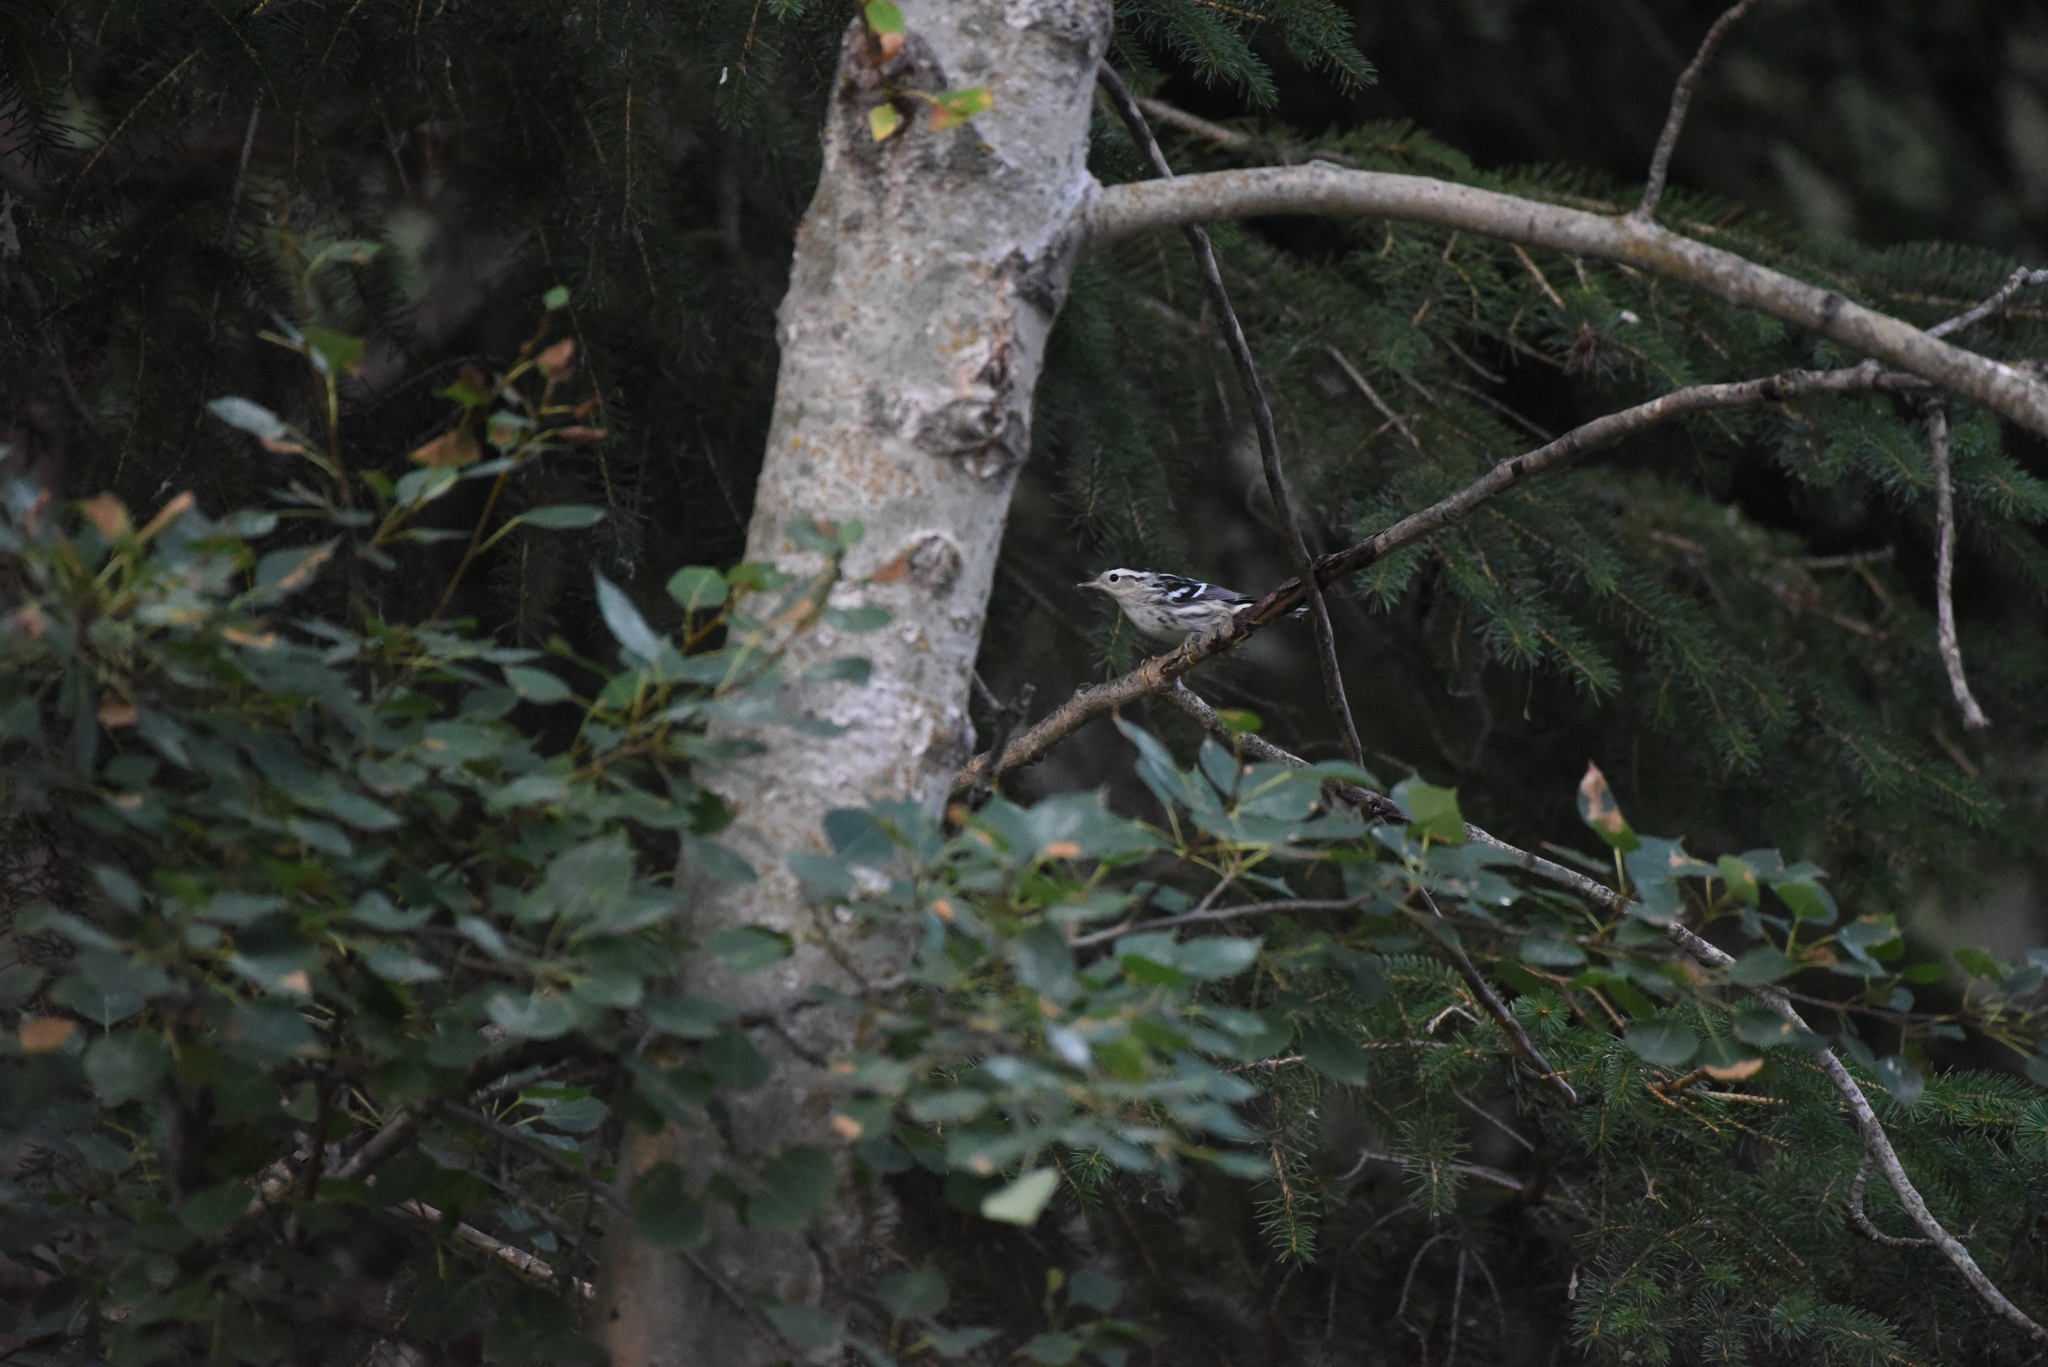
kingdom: Animalia
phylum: Chordata
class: Aves
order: Passeriformes
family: Parulidae
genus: Mniotilta
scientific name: Mniotilta varia
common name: Black-and-white warbler
